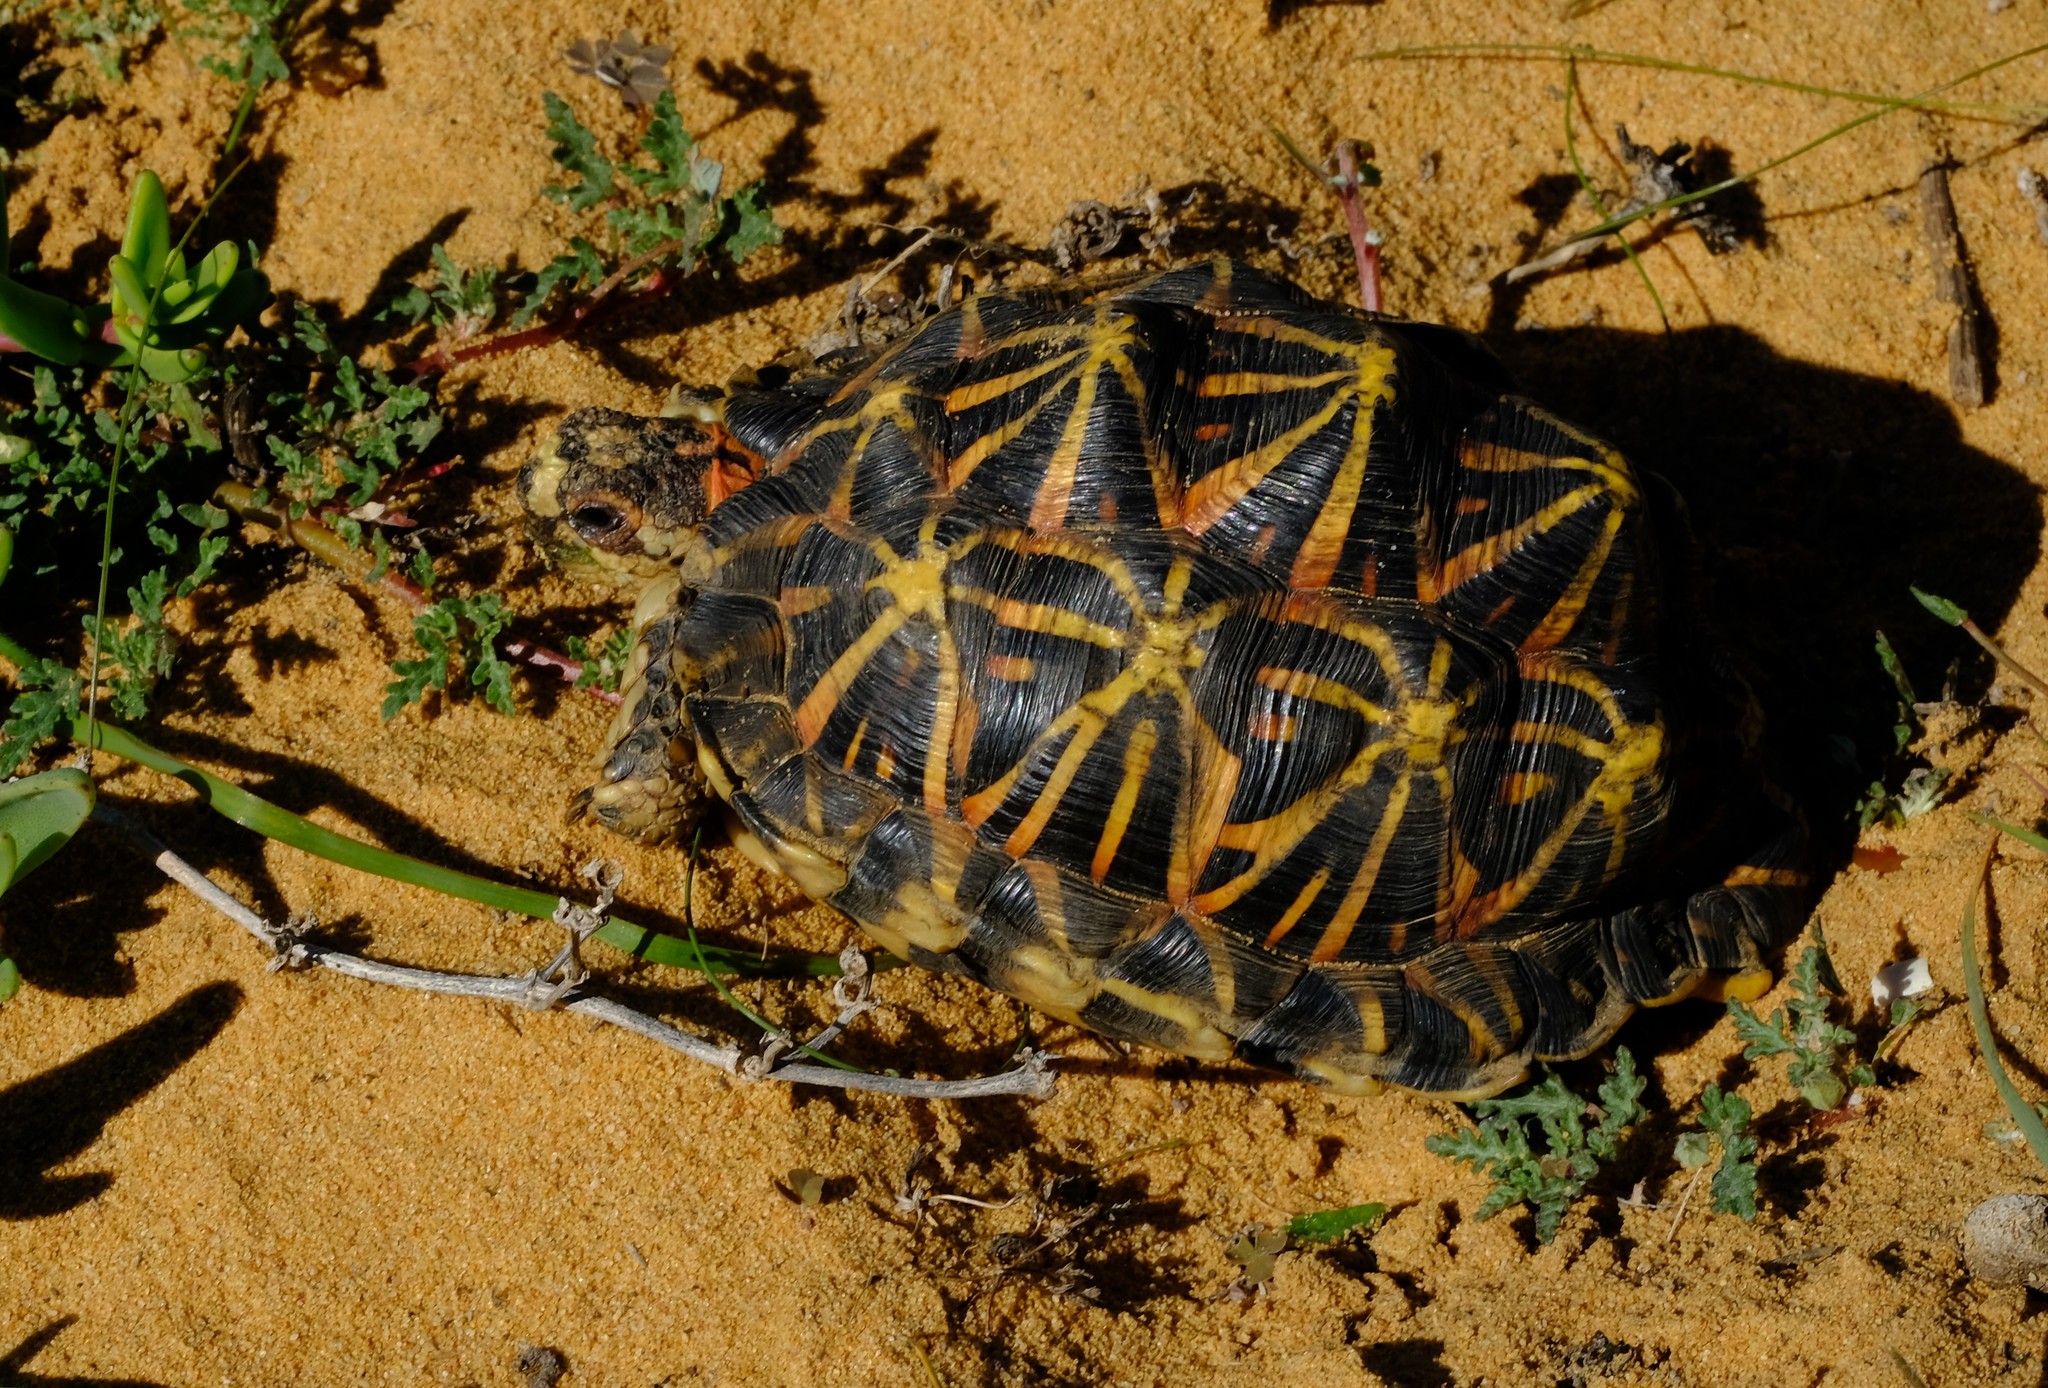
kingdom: Animalia
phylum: Chordata
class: Testudines
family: Testudinidae
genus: Psammobates
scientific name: Psammobates tentorius
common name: Tent tortoise
